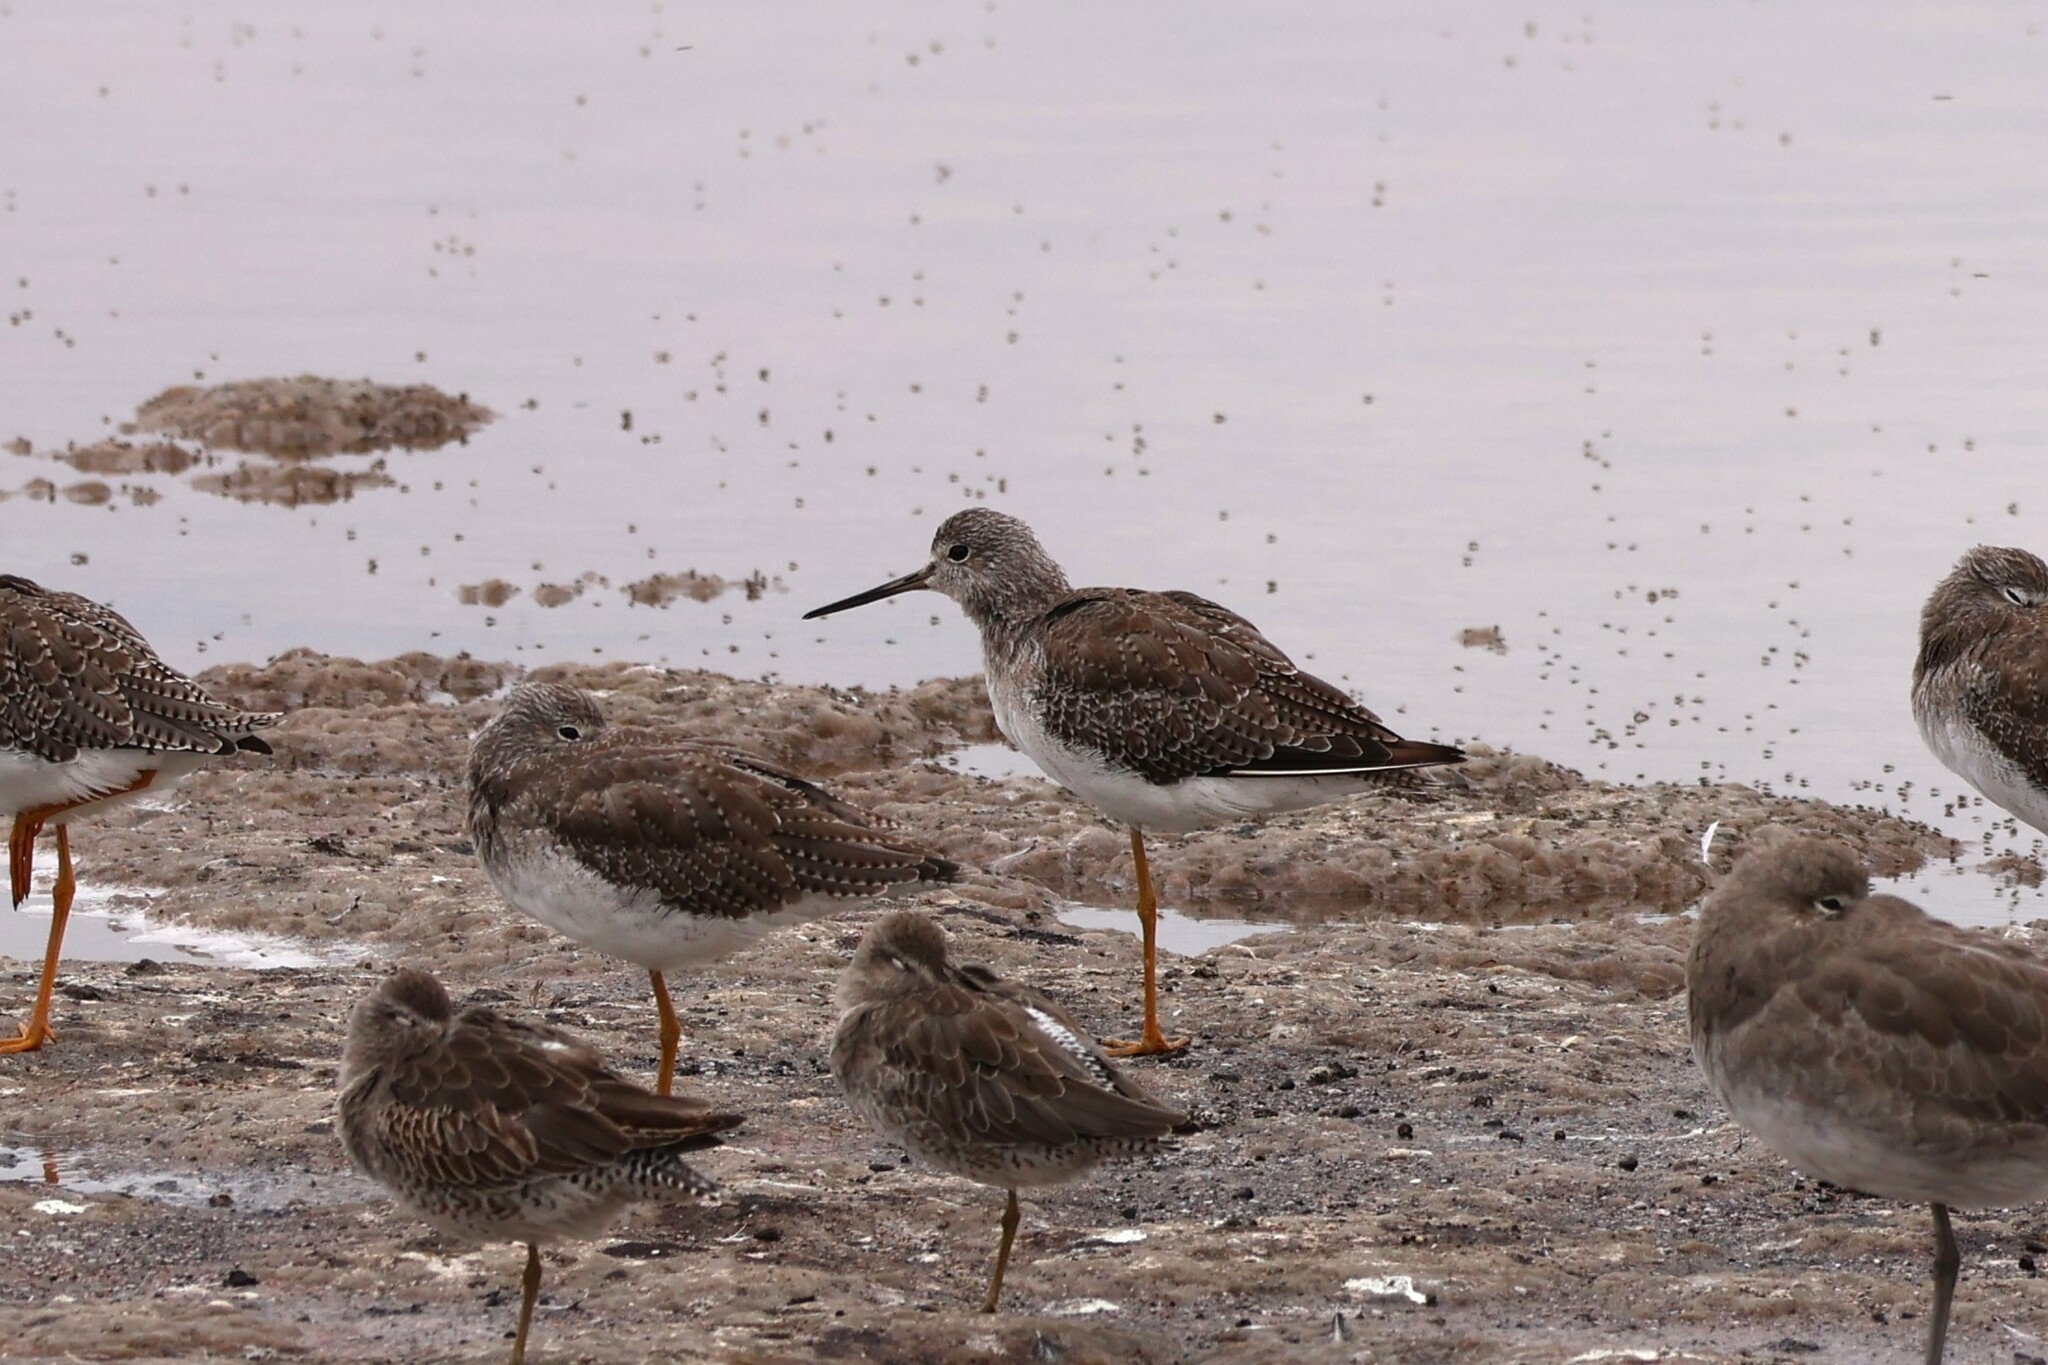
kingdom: Animalia
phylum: Chordata
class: Aves
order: Charadriiformes
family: Scolopacidae
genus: Tringa
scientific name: Tringa melanoleuca
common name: Greater yellowlegs
